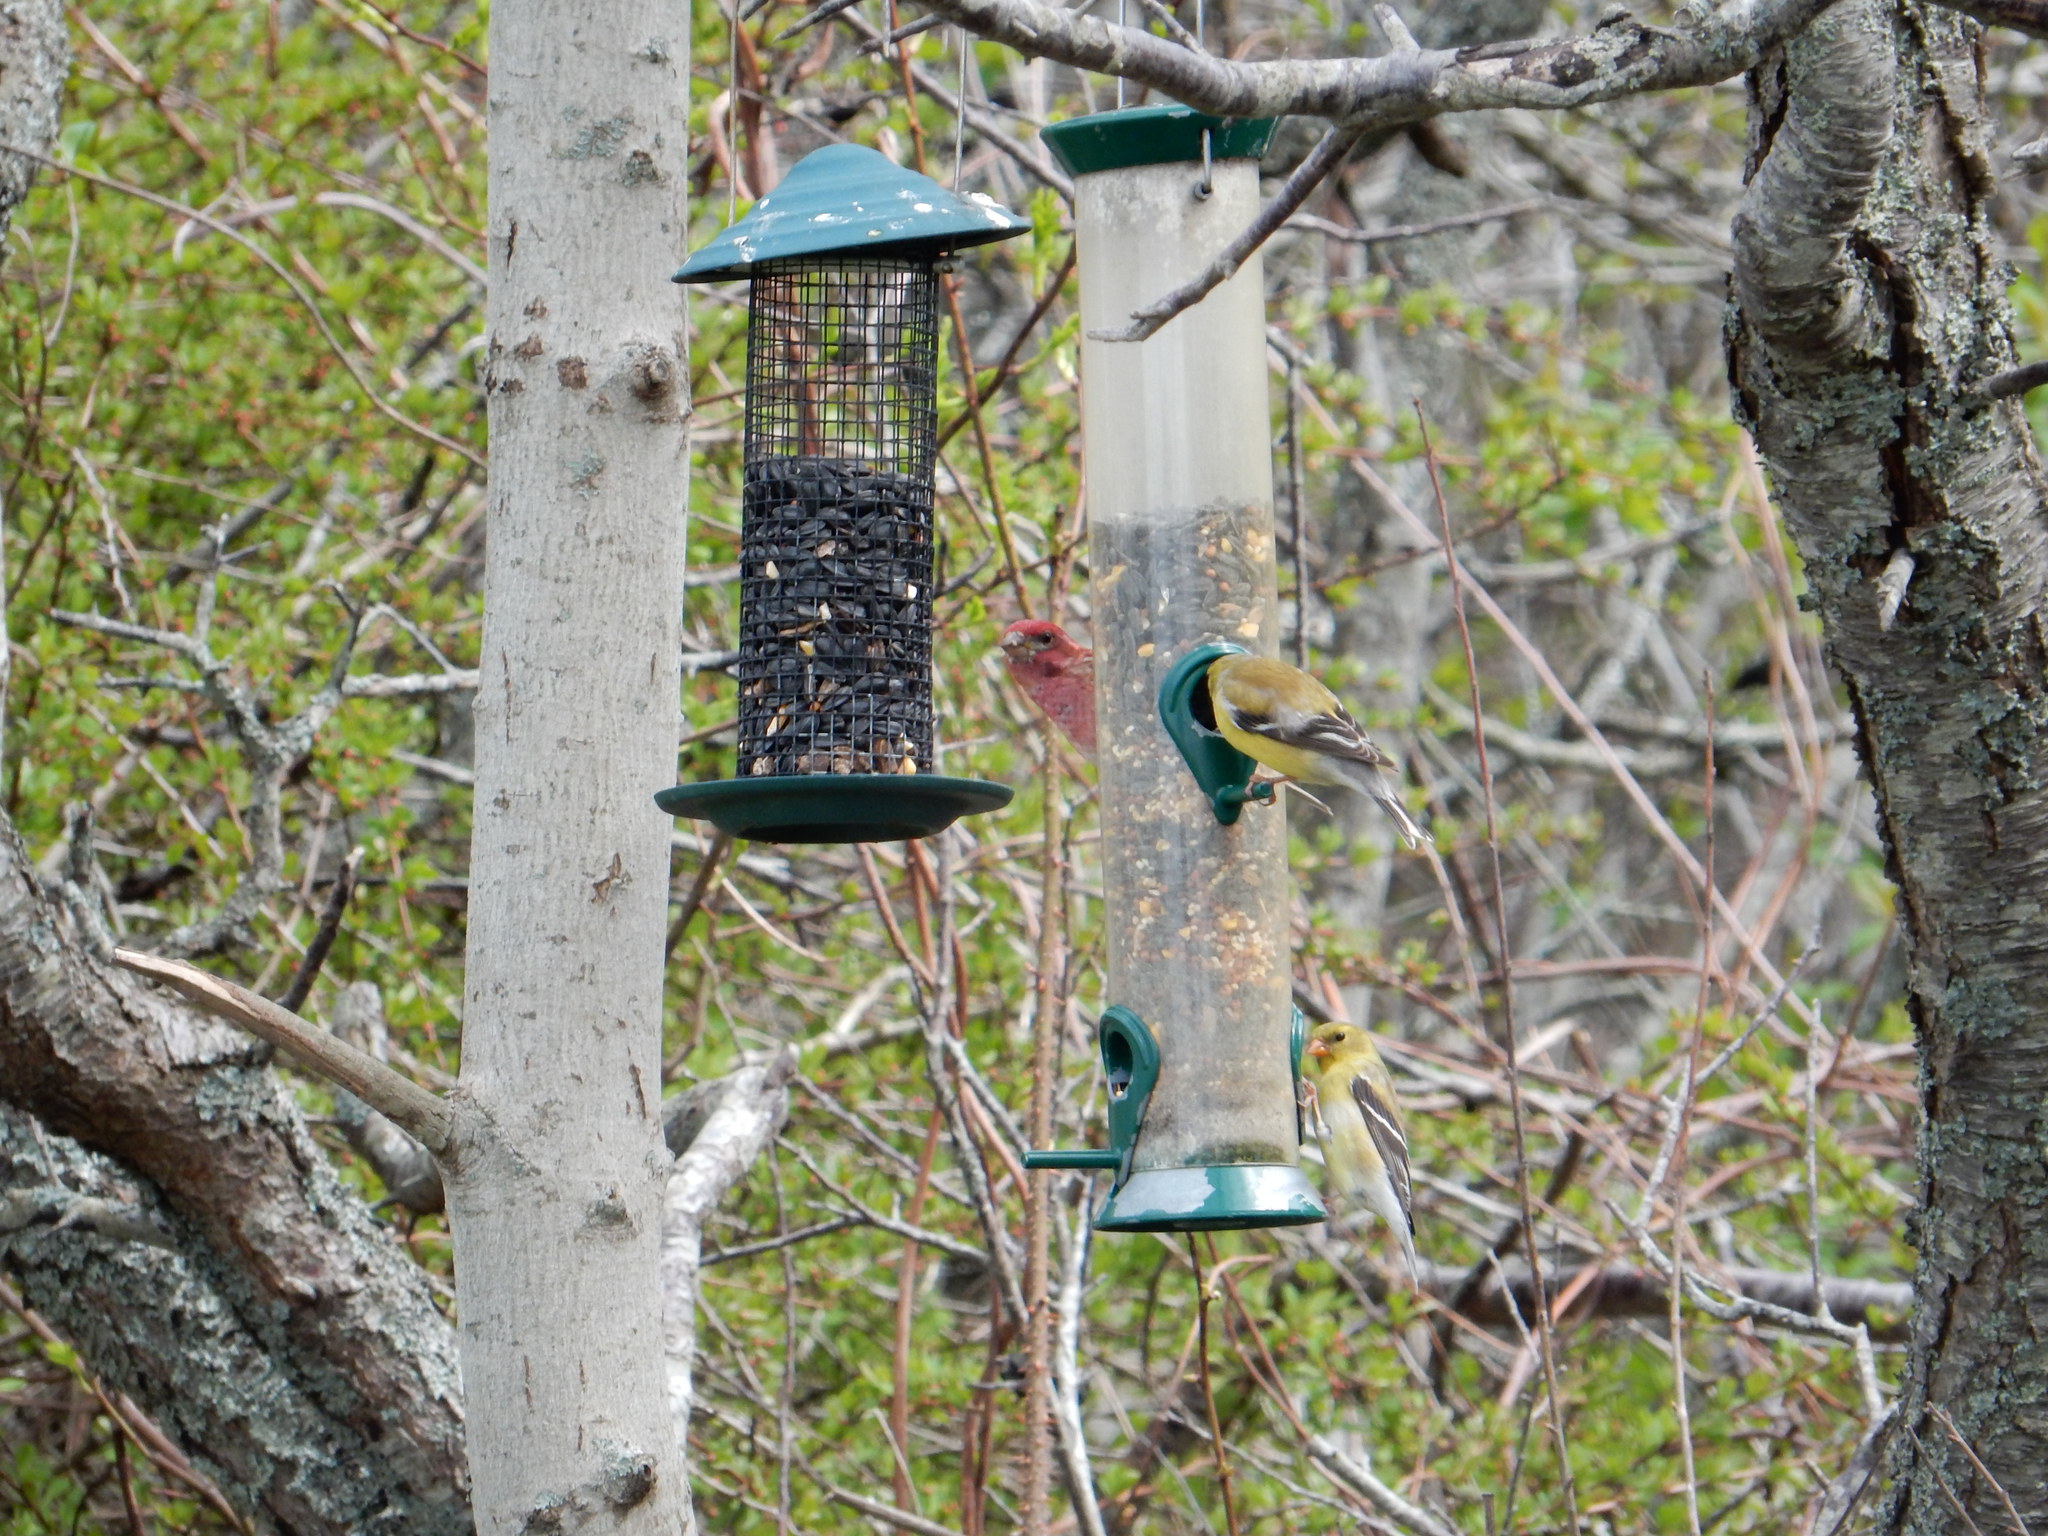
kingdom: Animalia
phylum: Chordata
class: Aves
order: Passeriformes
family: Fringillidae
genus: Spinus
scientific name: Spinus tristis
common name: American goldfinch
